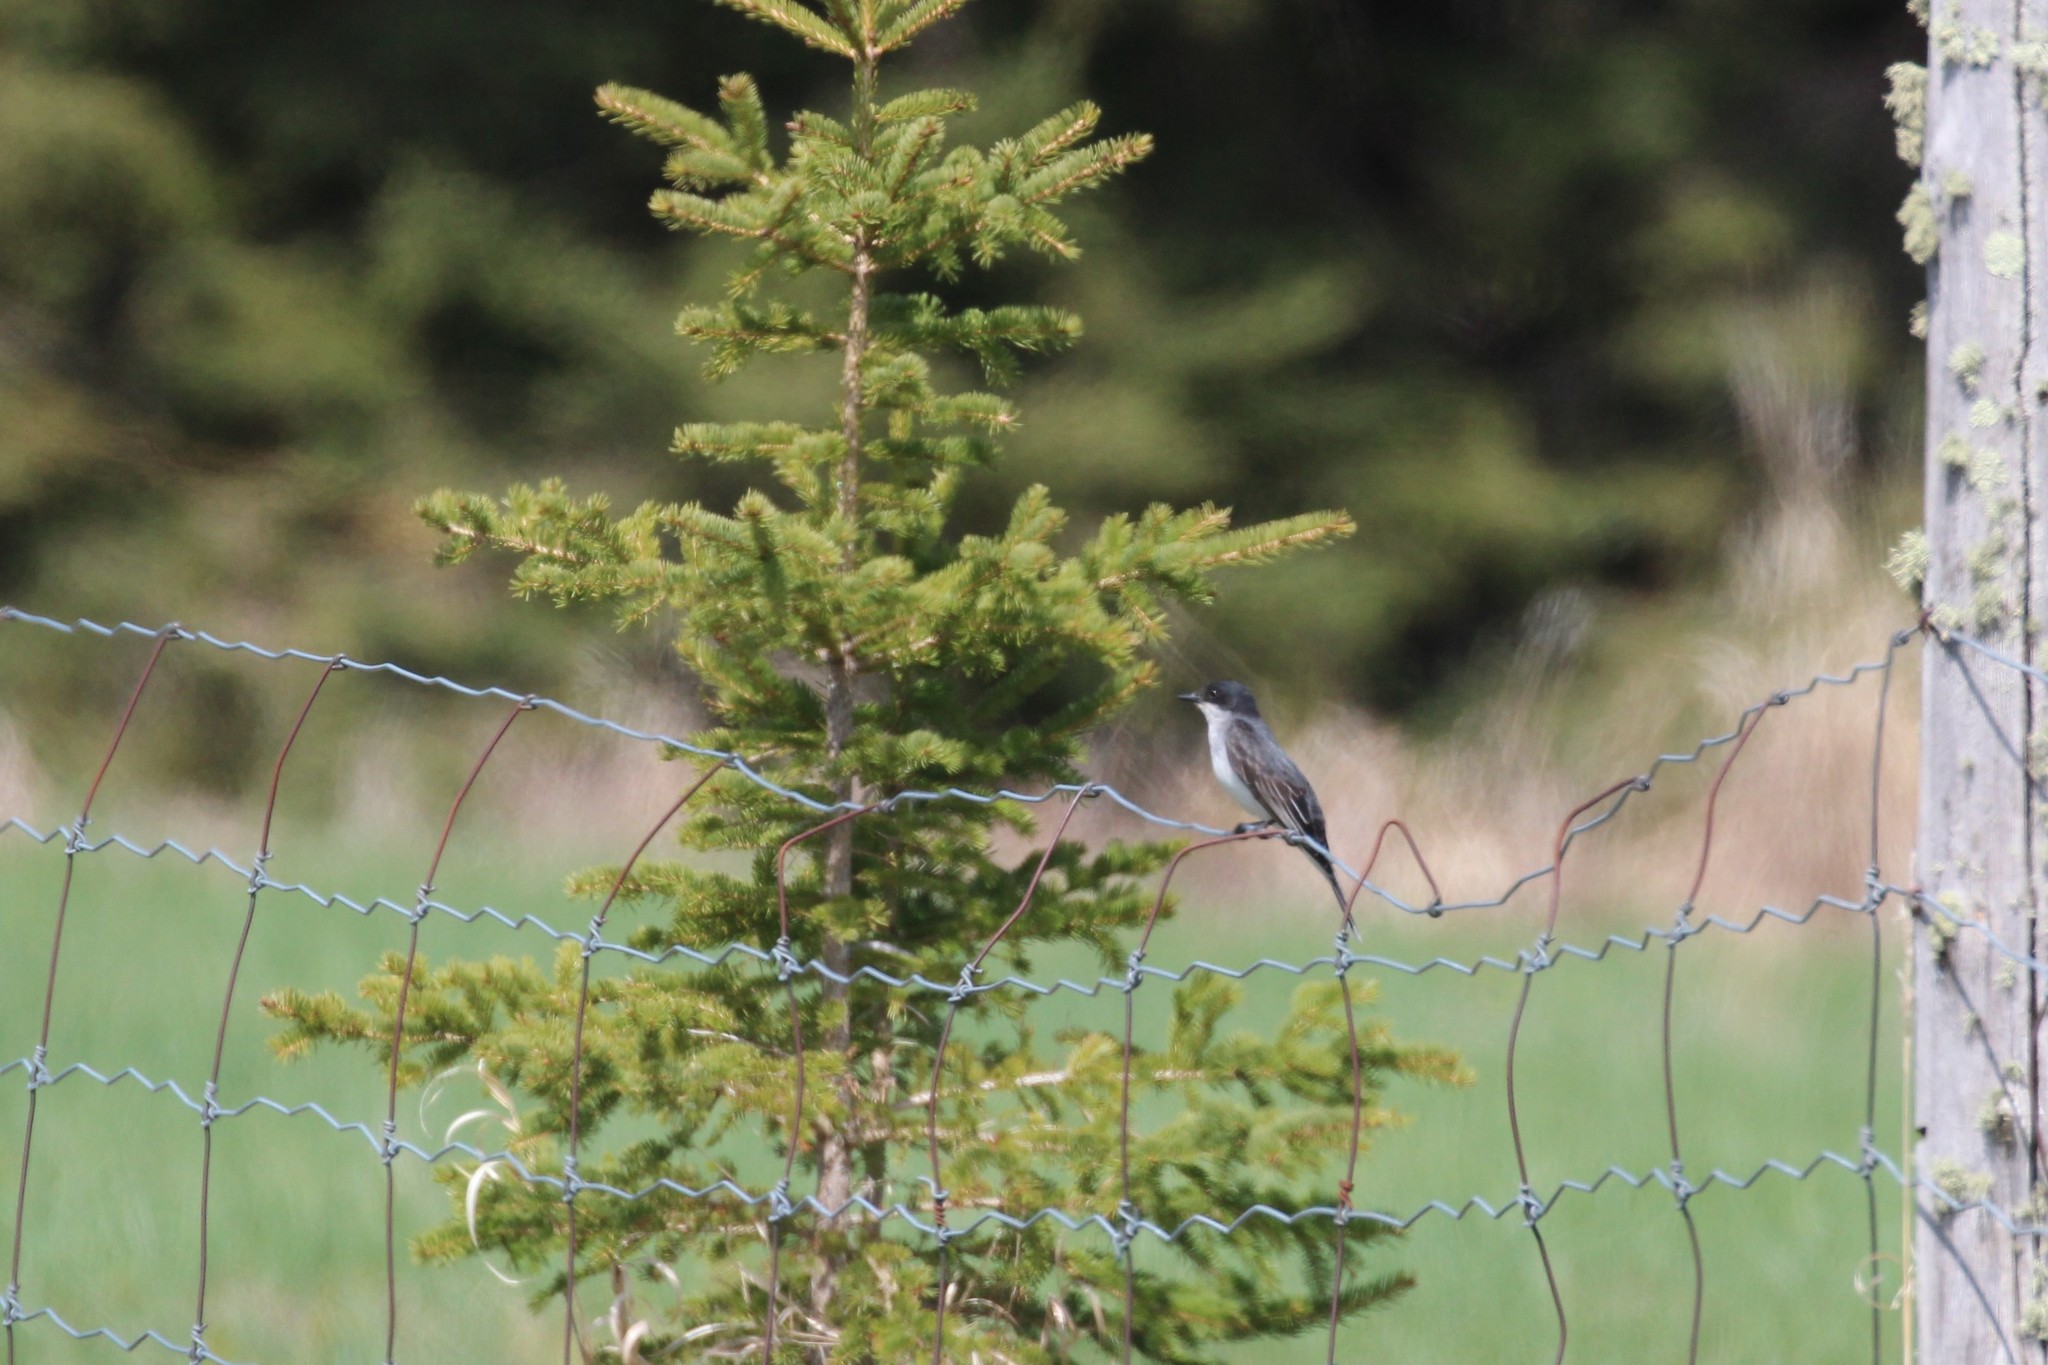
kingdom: Animalia
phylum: Chordata
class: Aves
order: Passeriformes
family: Tyrannidae
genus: Tyrannus
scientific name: Tyrannus tyrannus
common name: Eastern kingbird
